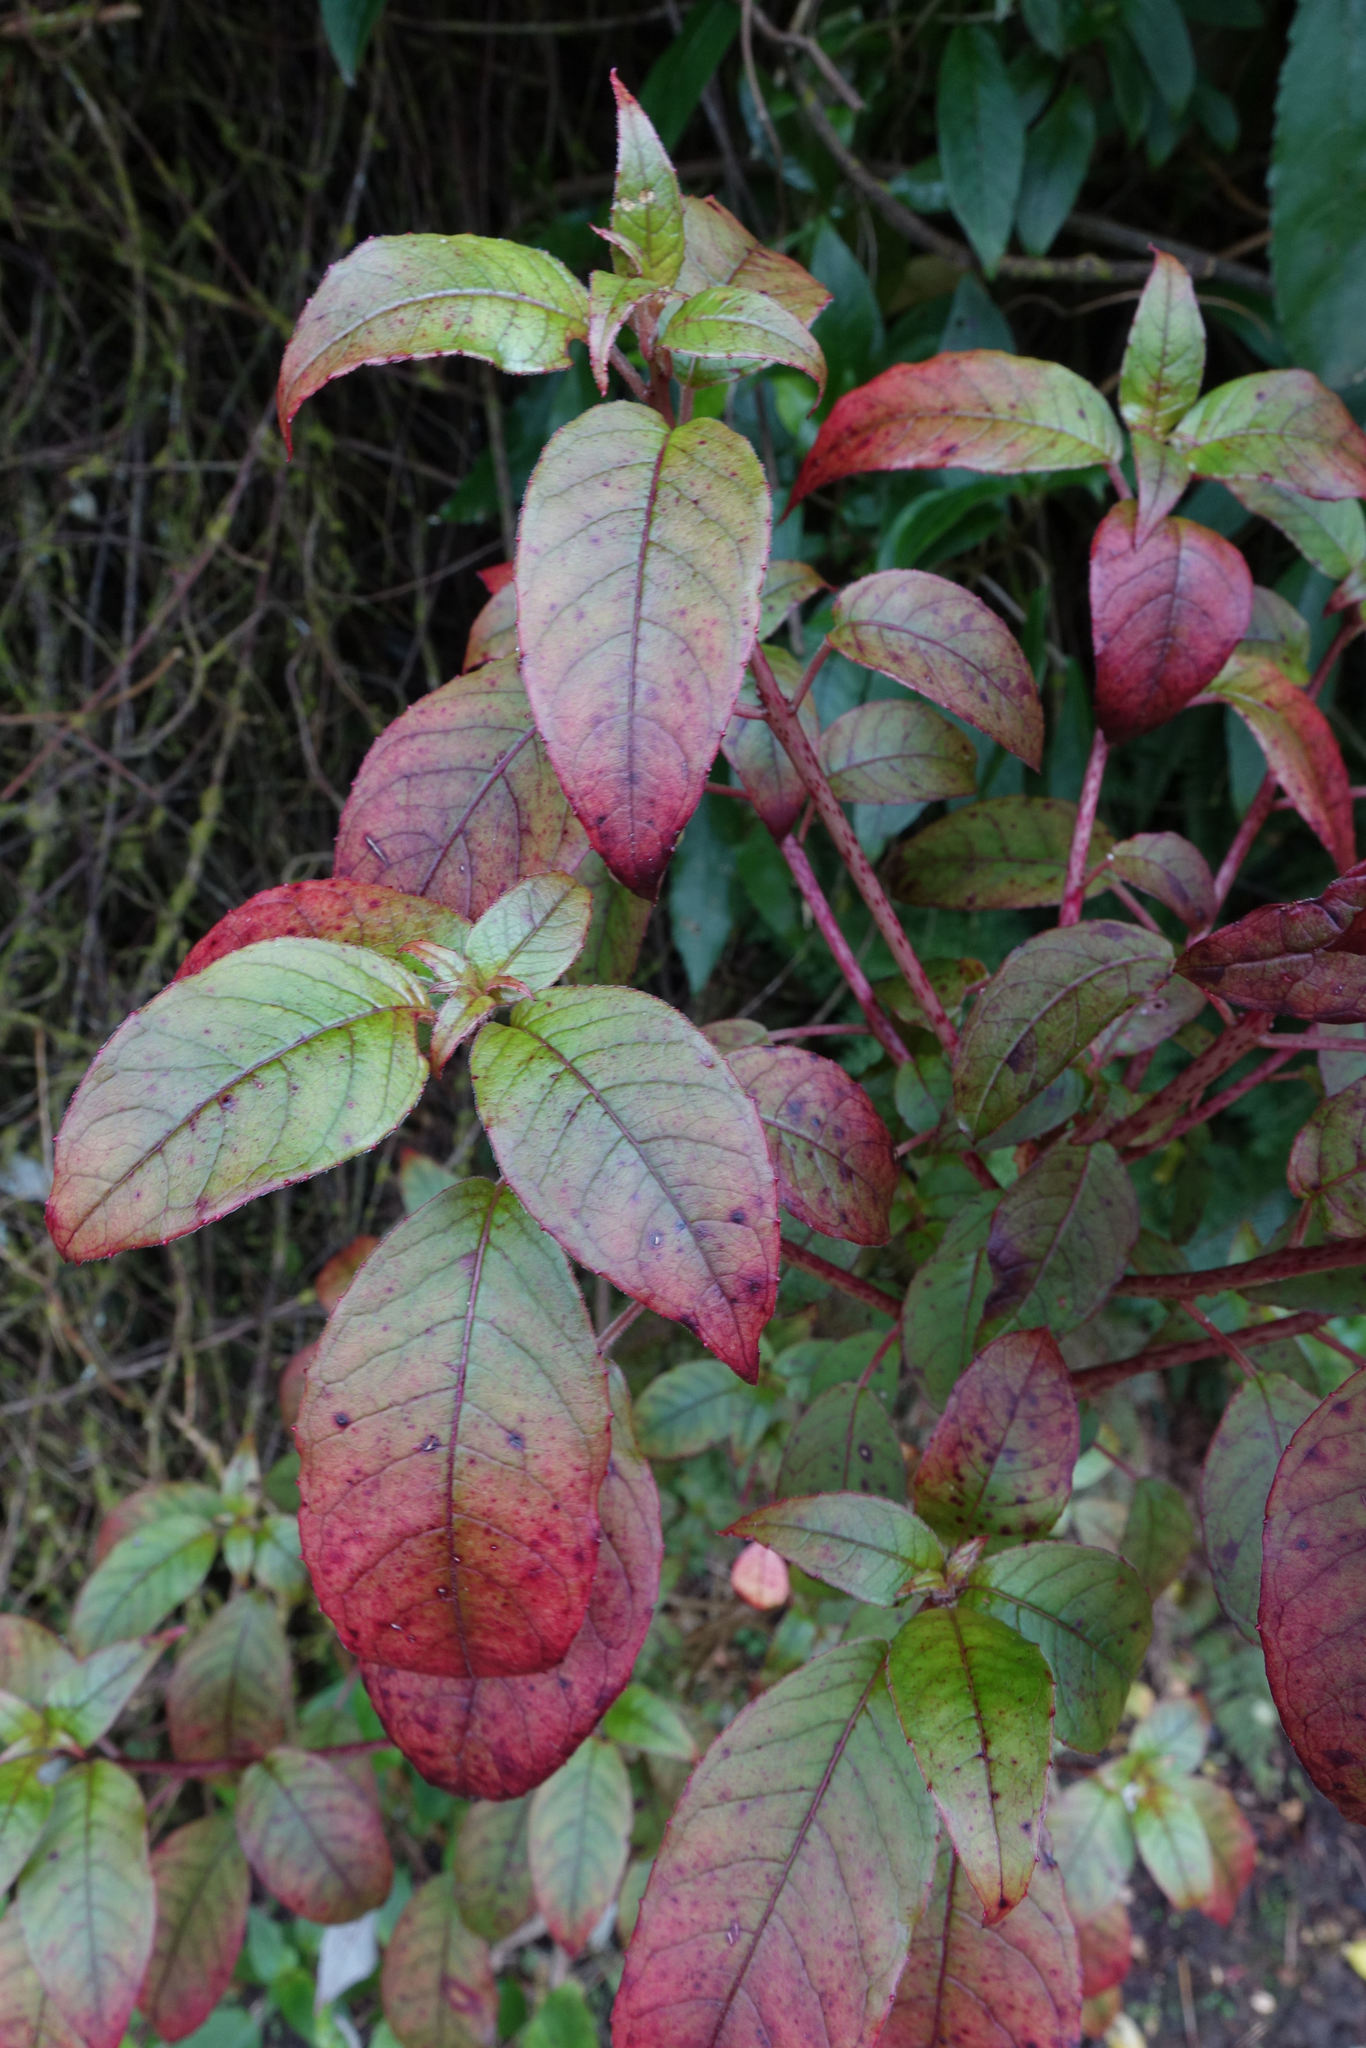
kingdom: Plantae
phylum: Tracheophyta
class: Magnoliopsida
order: Myrtales
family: Onagraceae
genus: Fuchsia
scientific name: Fuchsia excorticata
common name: Tree fuchsia
